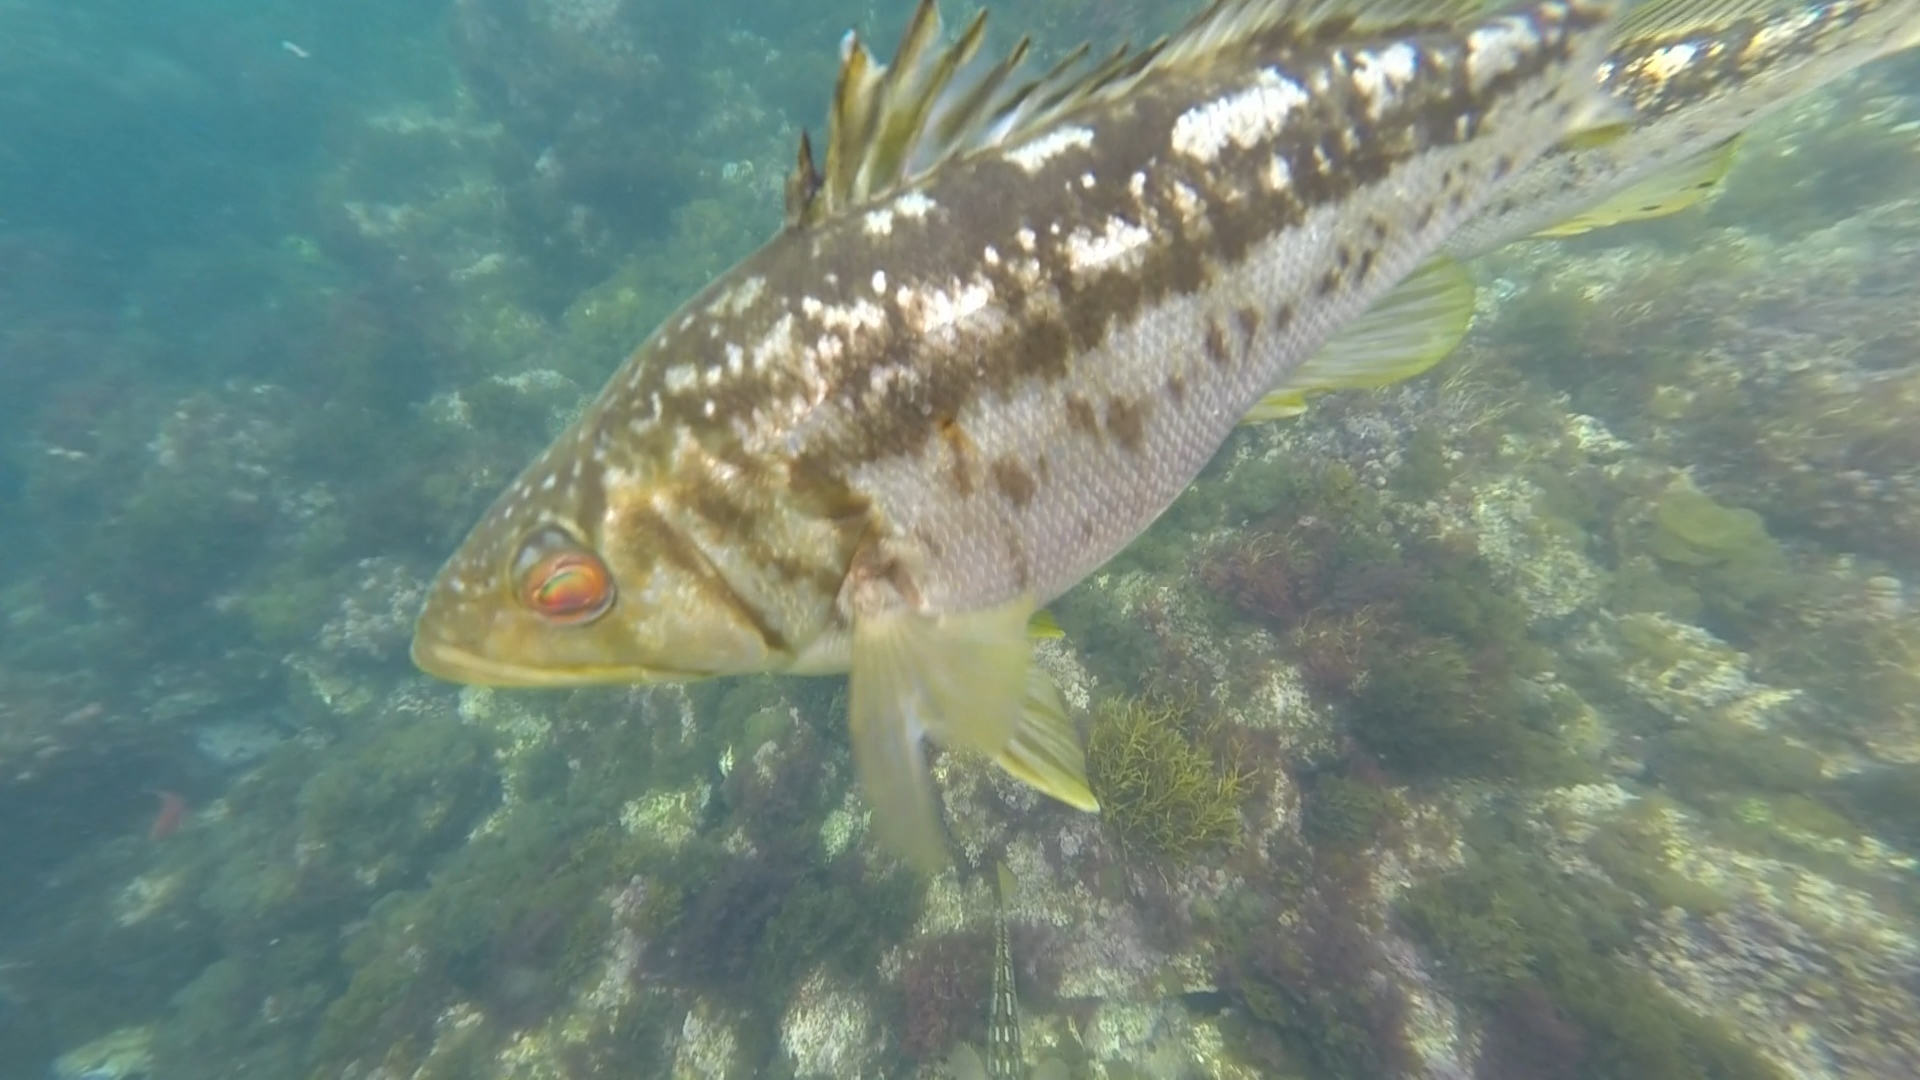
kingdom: Animalia
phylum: Chordata
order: Perciformes
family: Serranidae
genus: Paralabrax
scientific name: Paralabrax clathratus
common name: Kelp bass
